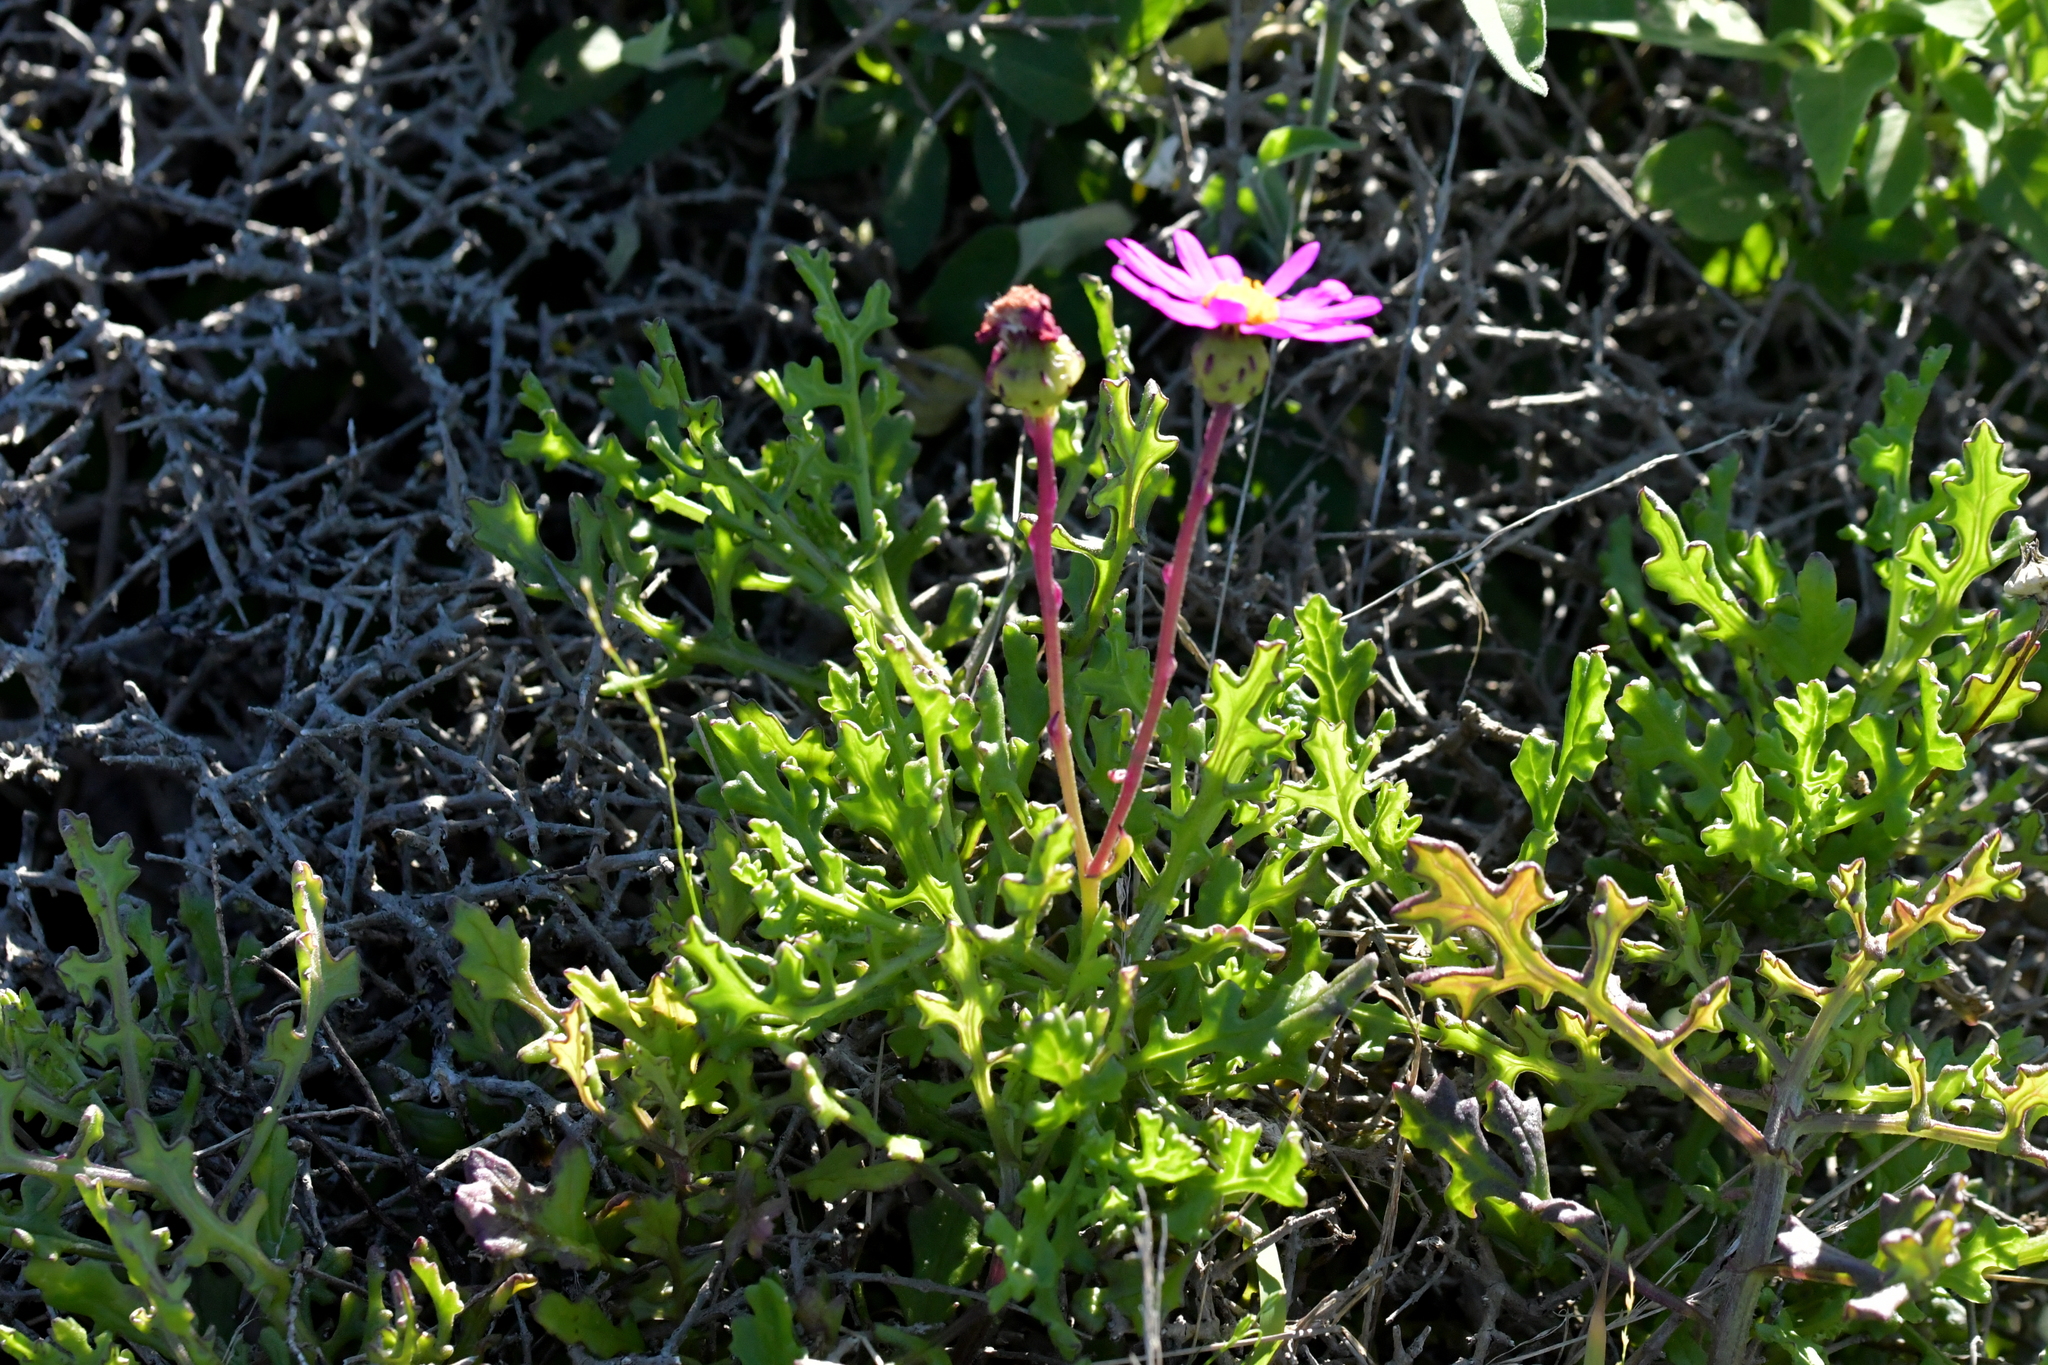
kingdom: Plantae
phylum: Tracheophyta
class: Magnoliopsida
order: Asterales
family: Asteraceae
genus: Senecio
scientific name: Senecio elegans
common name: Purple groundsel
